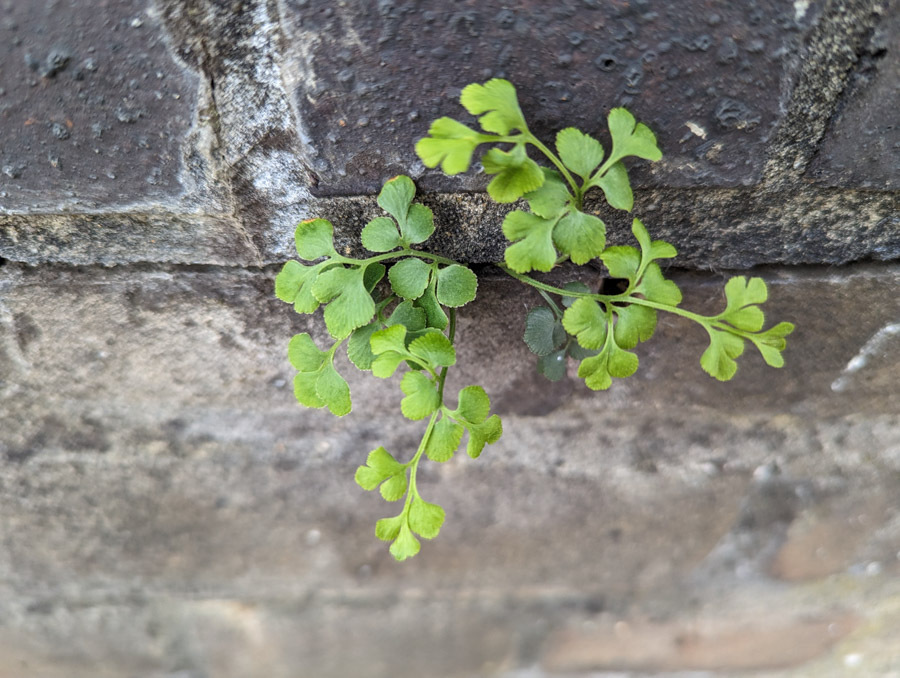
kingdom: Plantae
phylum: Tracheophyta
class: Polypodiopsida
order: Polypodiales
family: Aspleniaceae
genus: Asplenium
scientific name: Asplenium ruta-muraria
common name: Wall-rue
